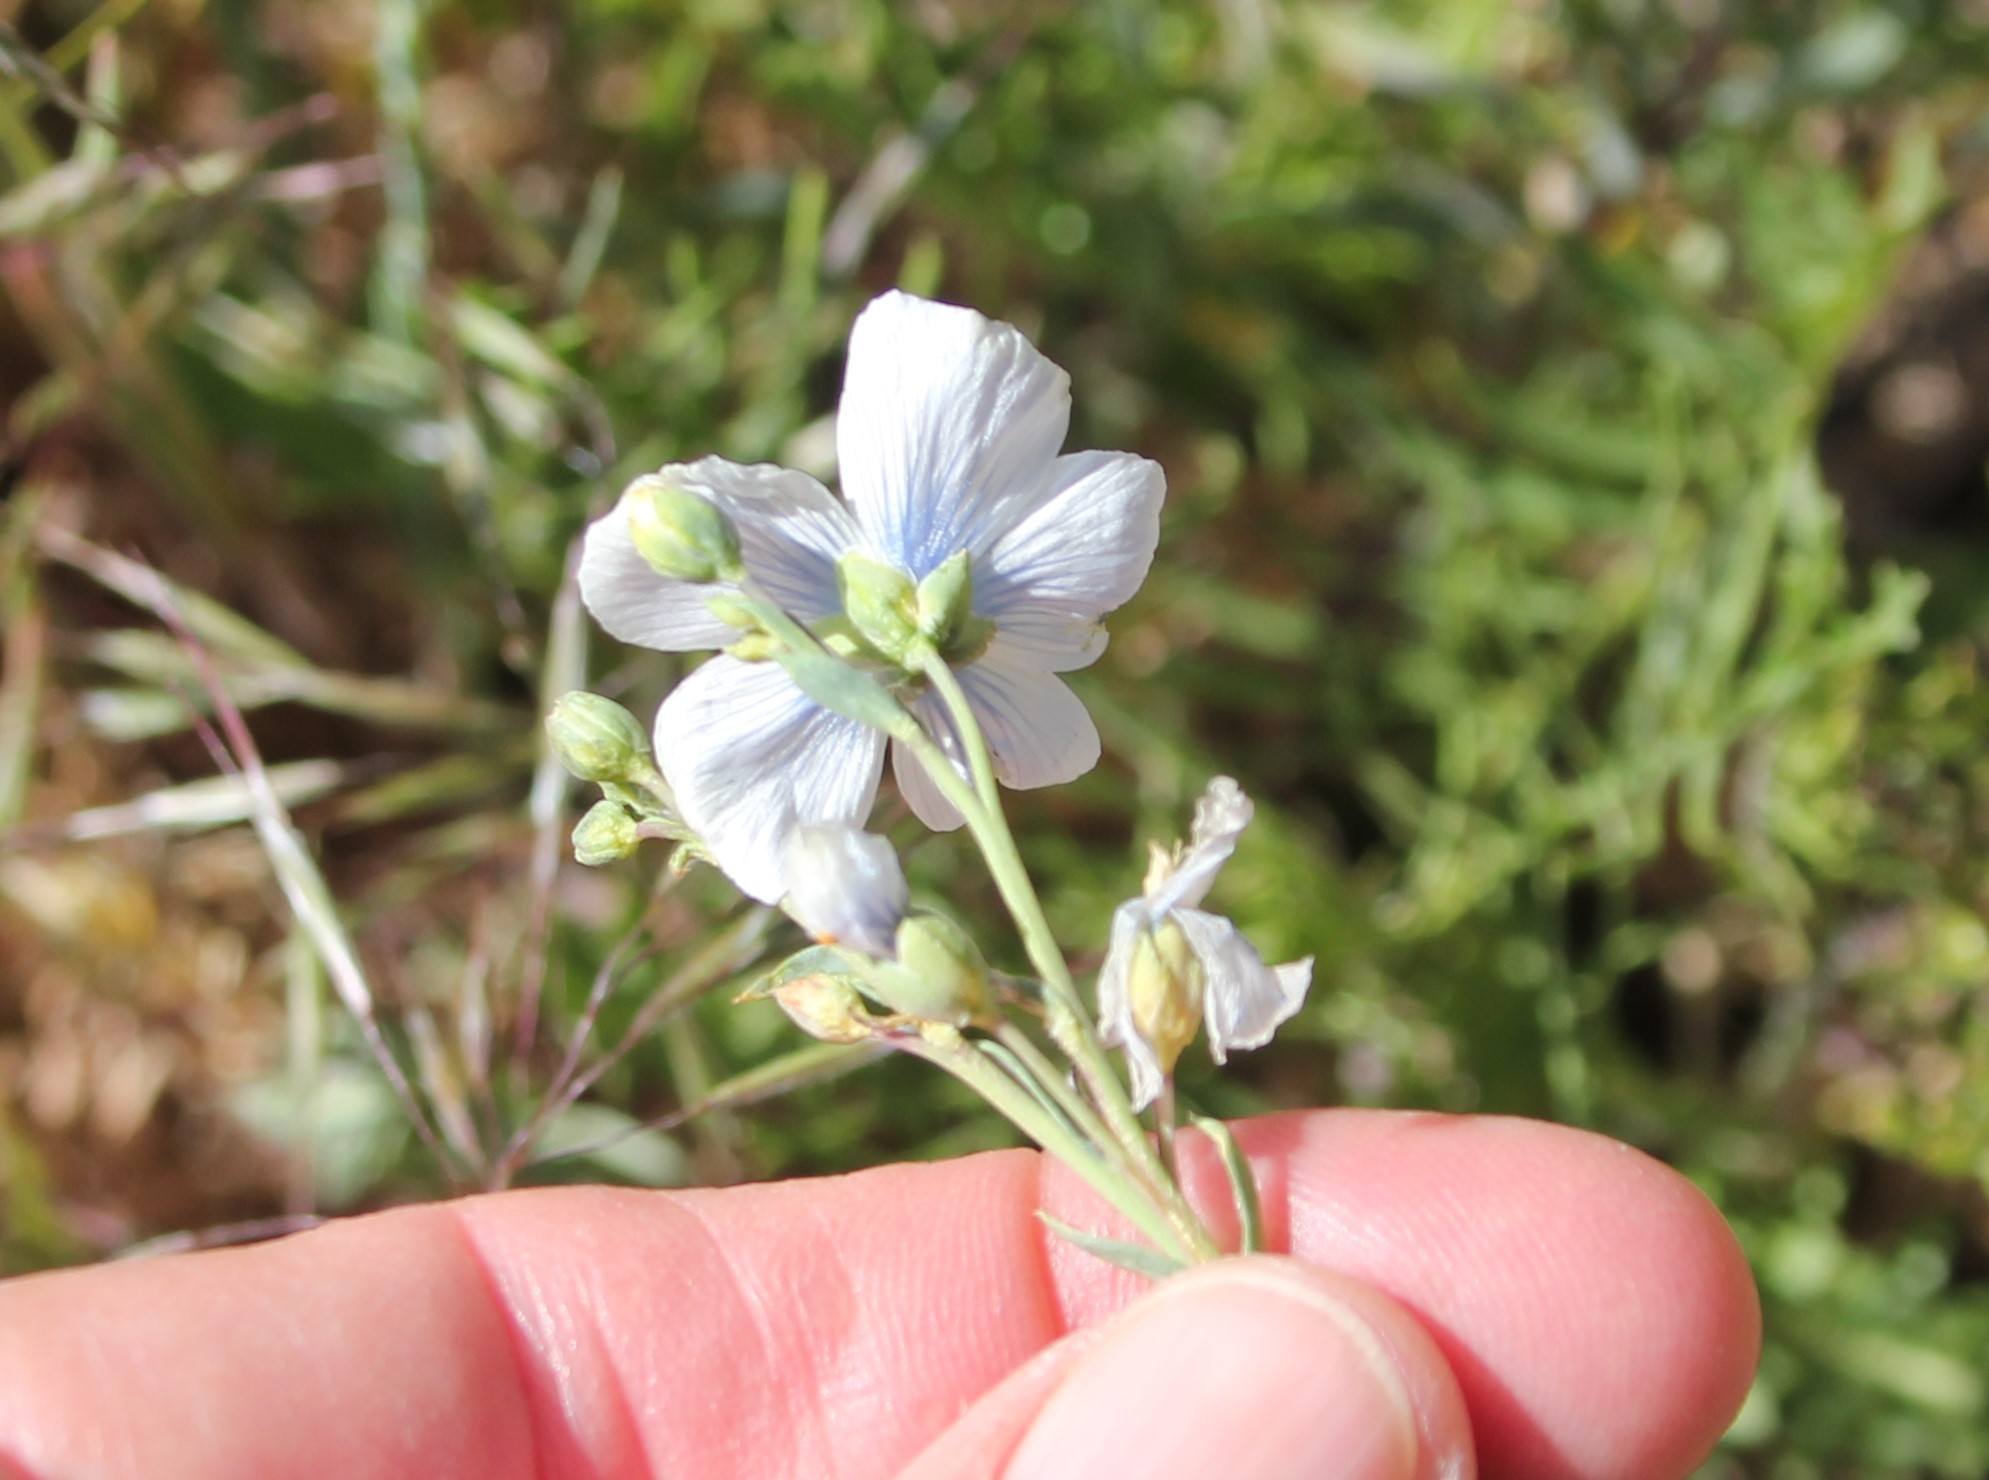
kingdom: Plantae
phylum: Tracheophyta
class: Magnoliopsida
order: Malpighiales
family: Linaceae
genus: Linum
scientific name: Linum lewisii
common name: Prairie flax
